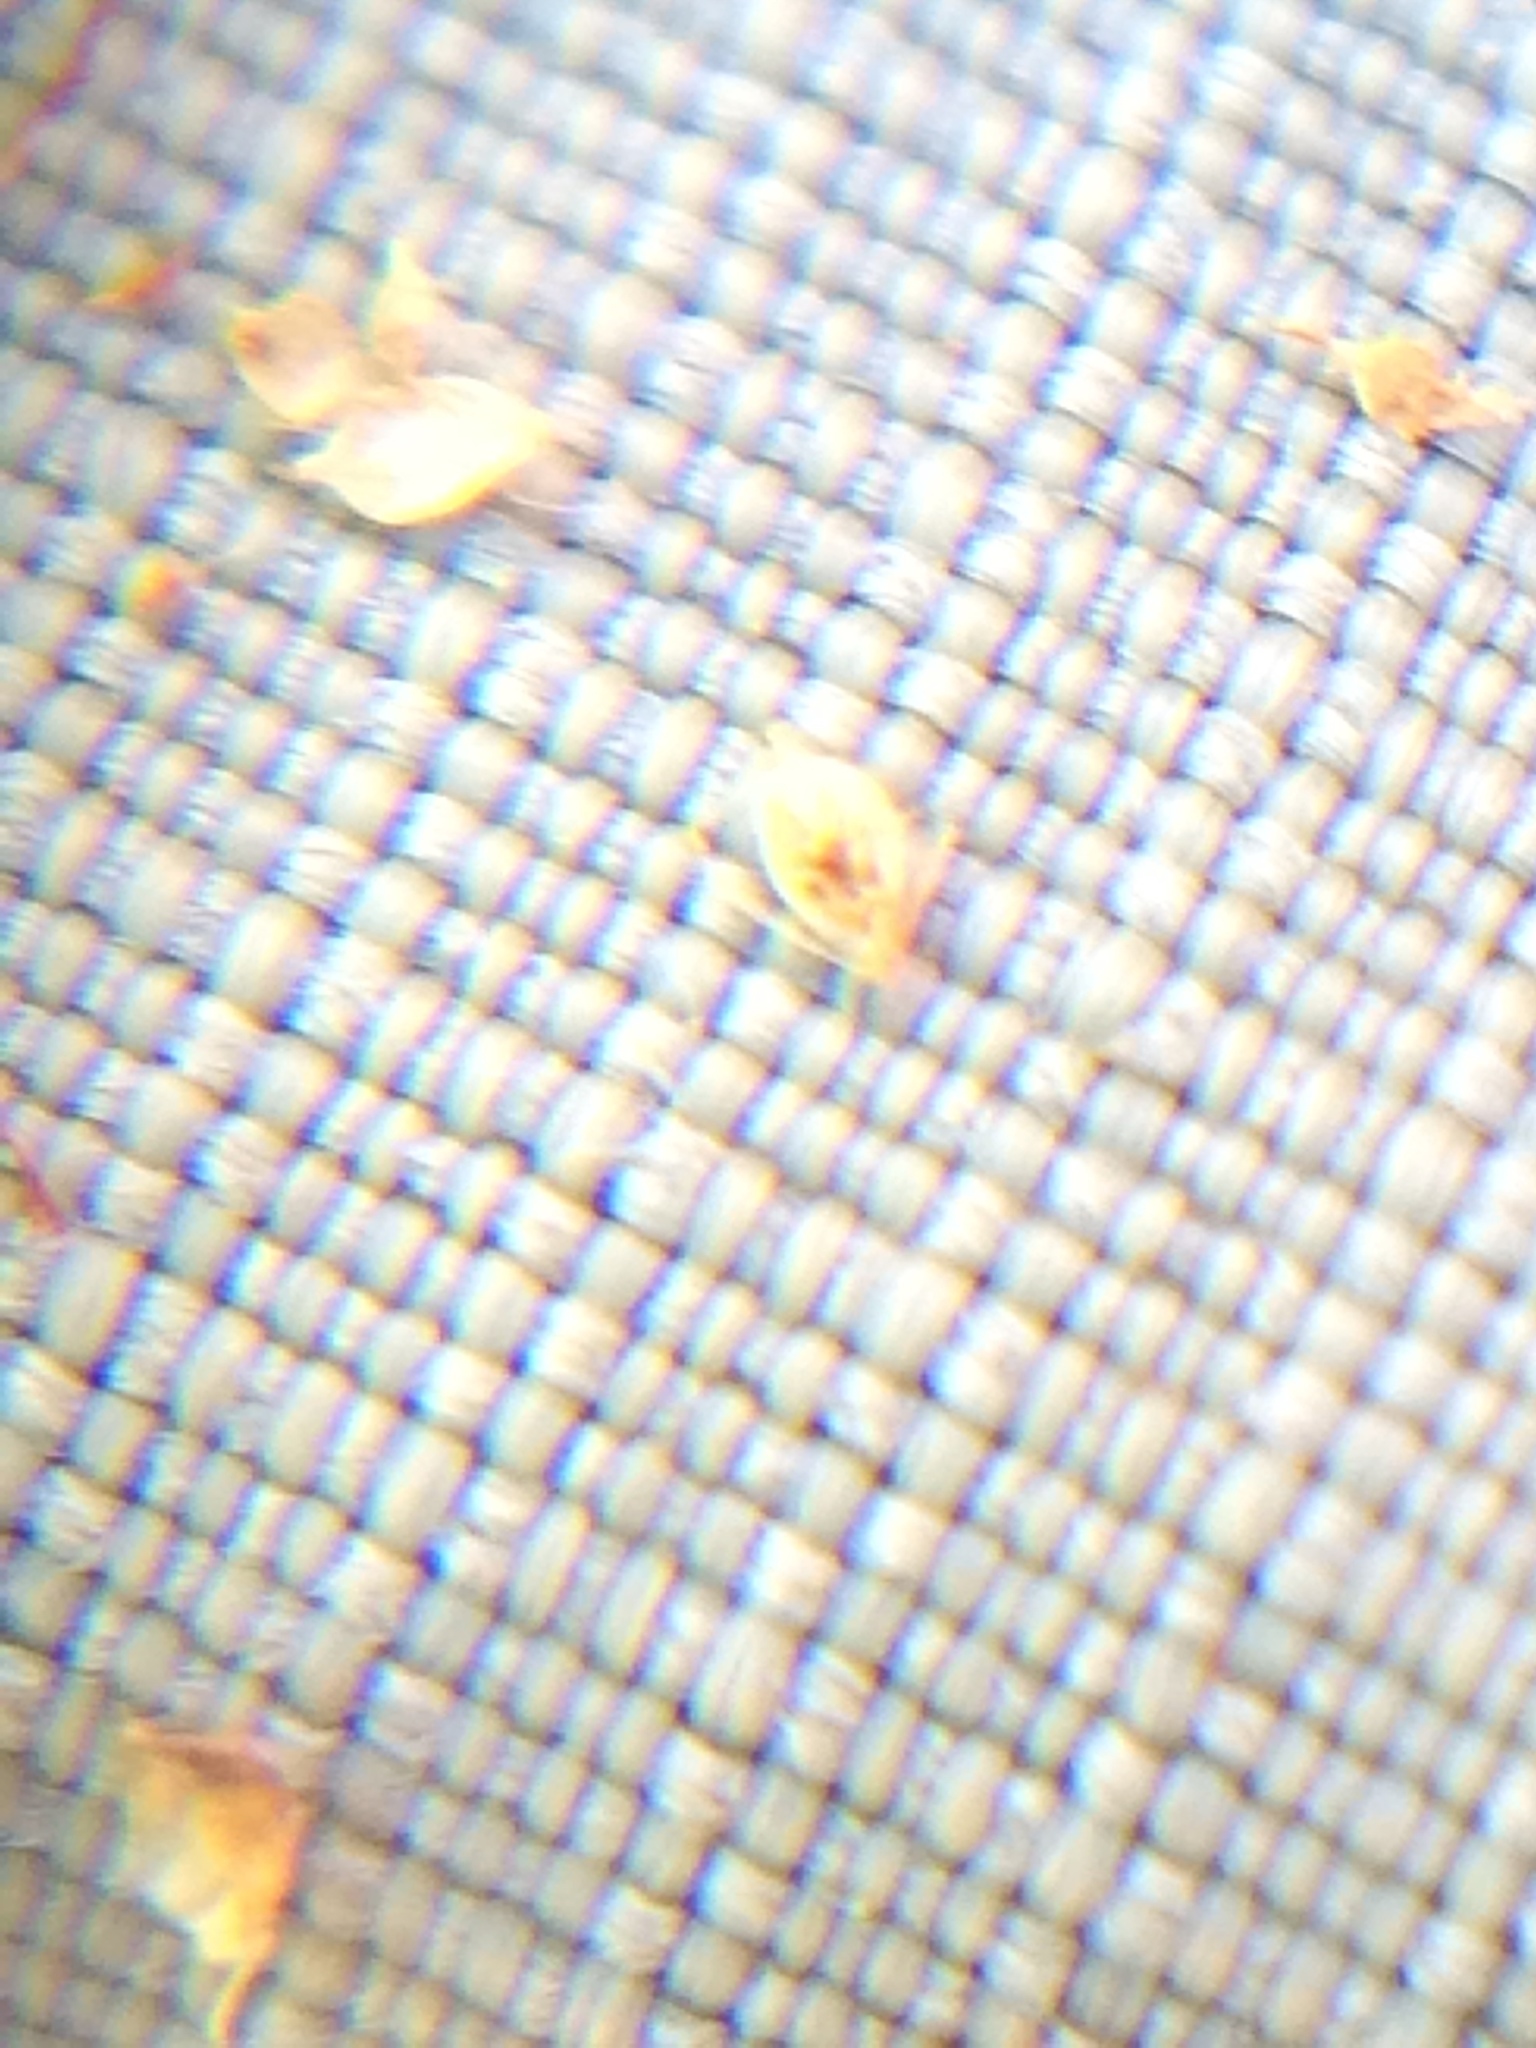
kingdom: Plantae
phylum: Tracheophyta
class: Liliopsida
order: Poales
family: Cyperaceae
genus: Scirpus
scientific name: Scirpus hattorianus
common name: Early dark-green bulrush
